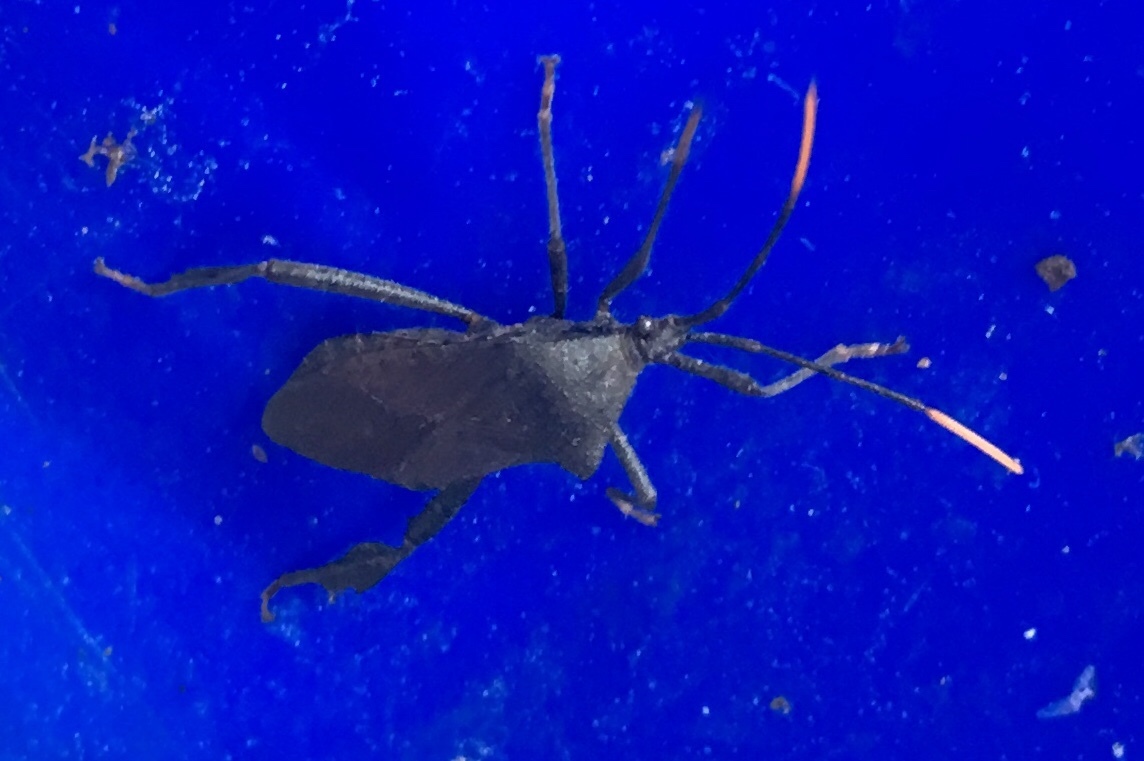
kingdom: Animalia
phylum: Arthropoda
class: Insecta
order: Hemiptera
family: Coreidae
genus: Acanthocephala
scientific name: Acanthocephala terminalis
